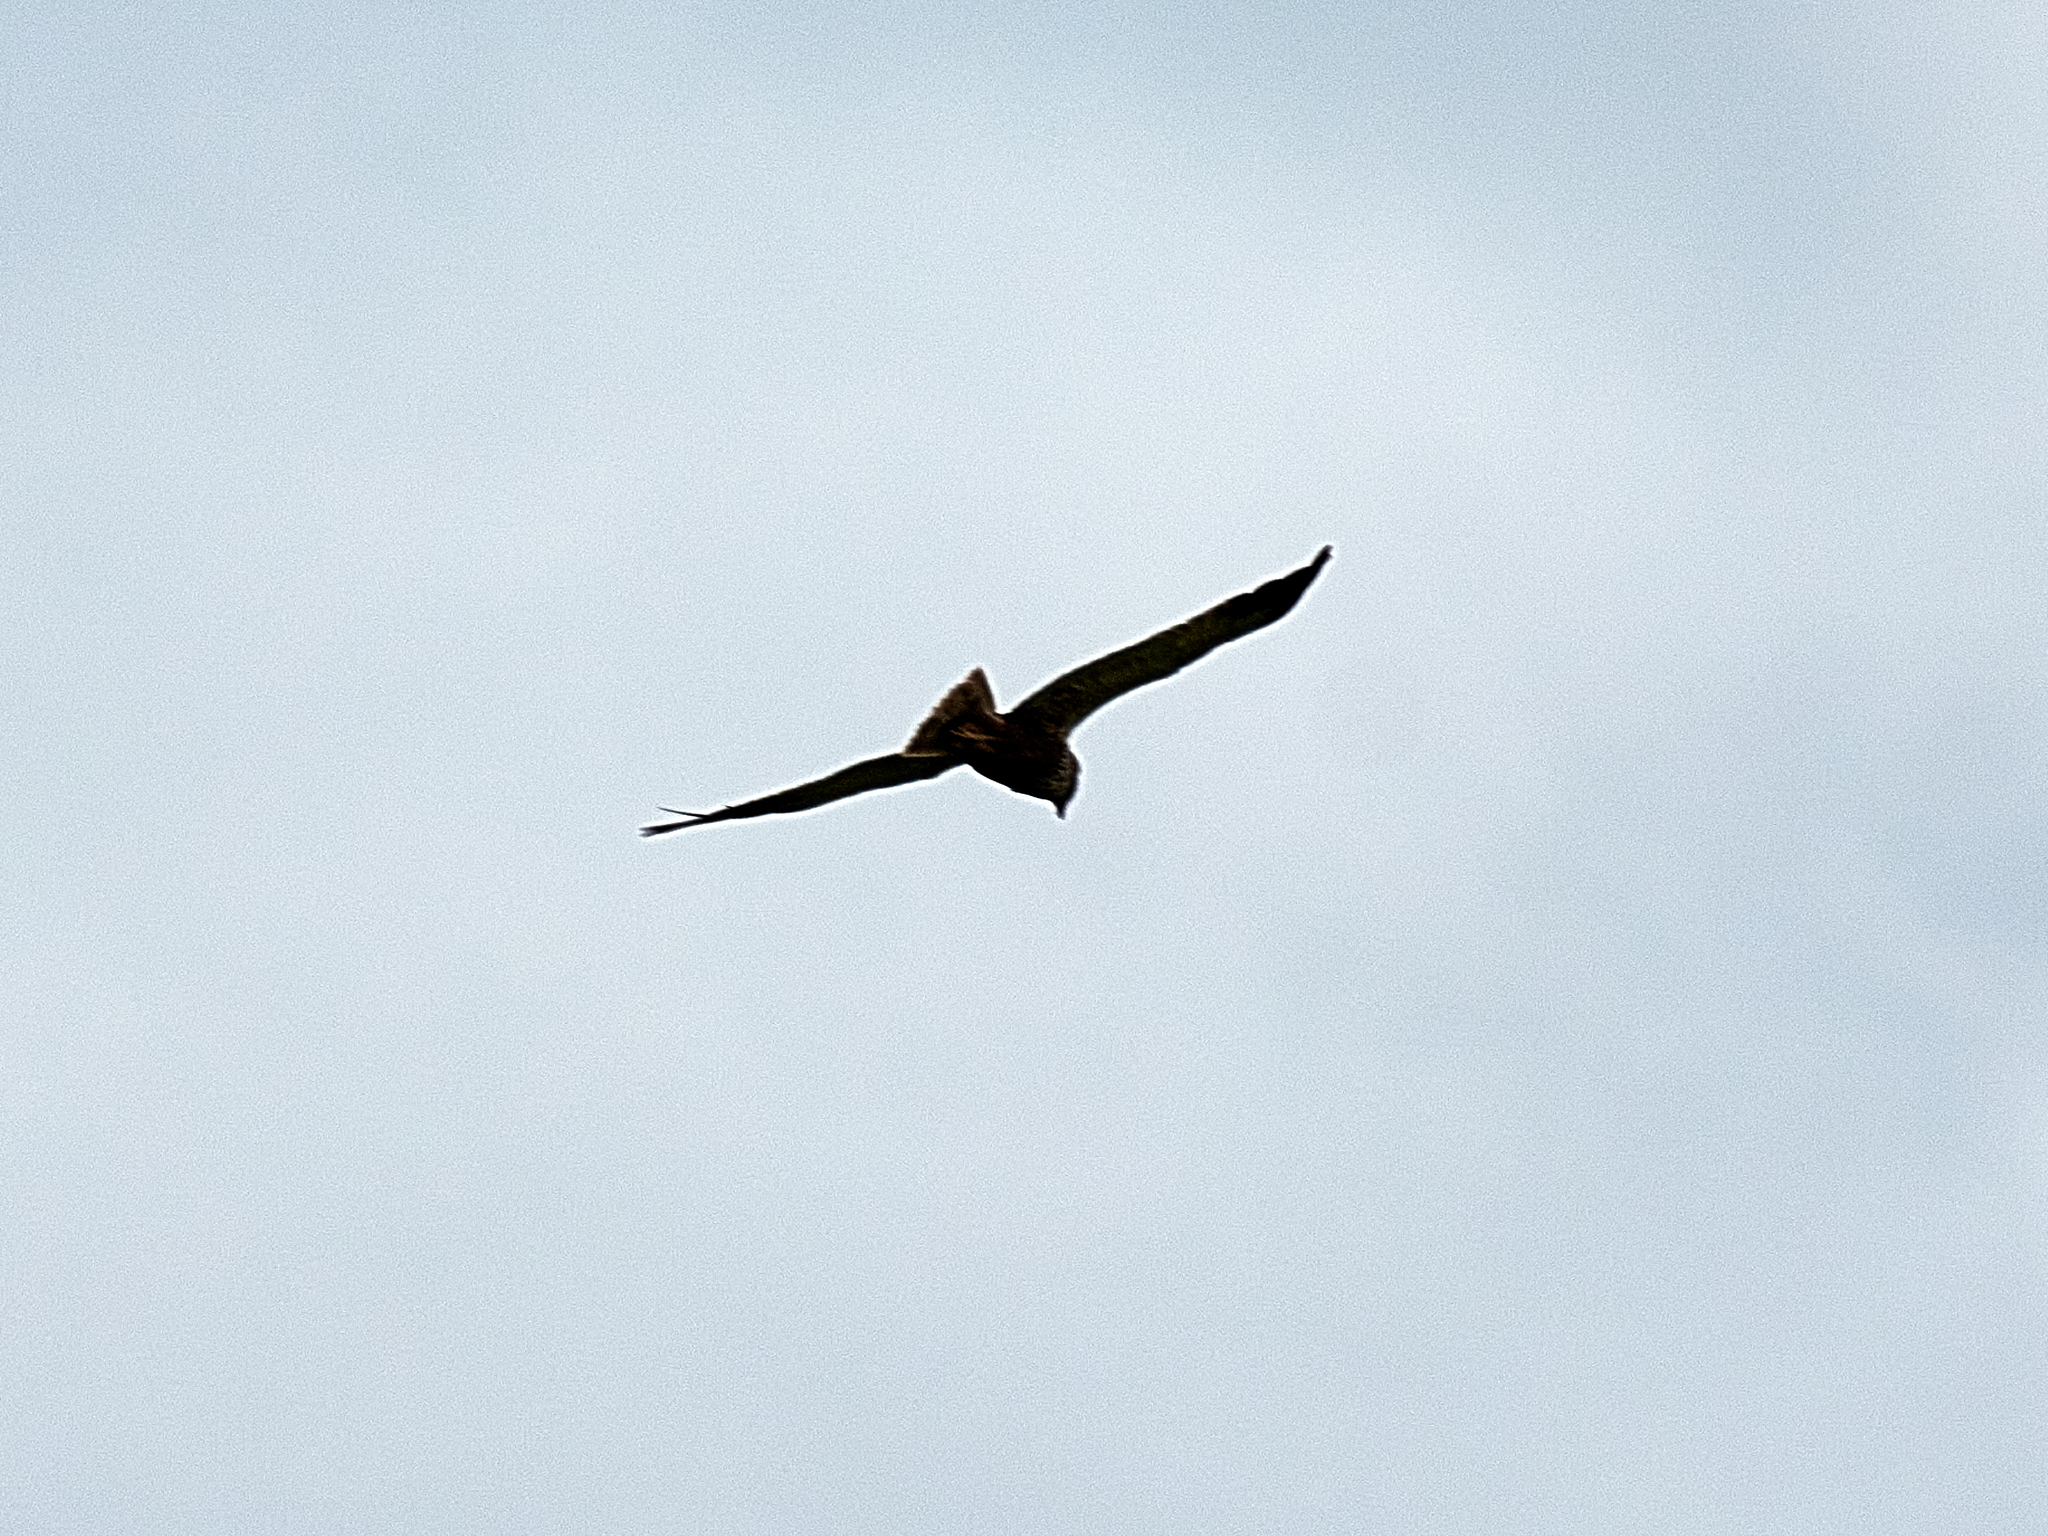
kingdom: Animalia
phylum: Chordata
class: Aves
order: Accipitriformes
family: Accipitridae
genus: Milvus
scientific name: Milvus migrans
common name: Black kite
